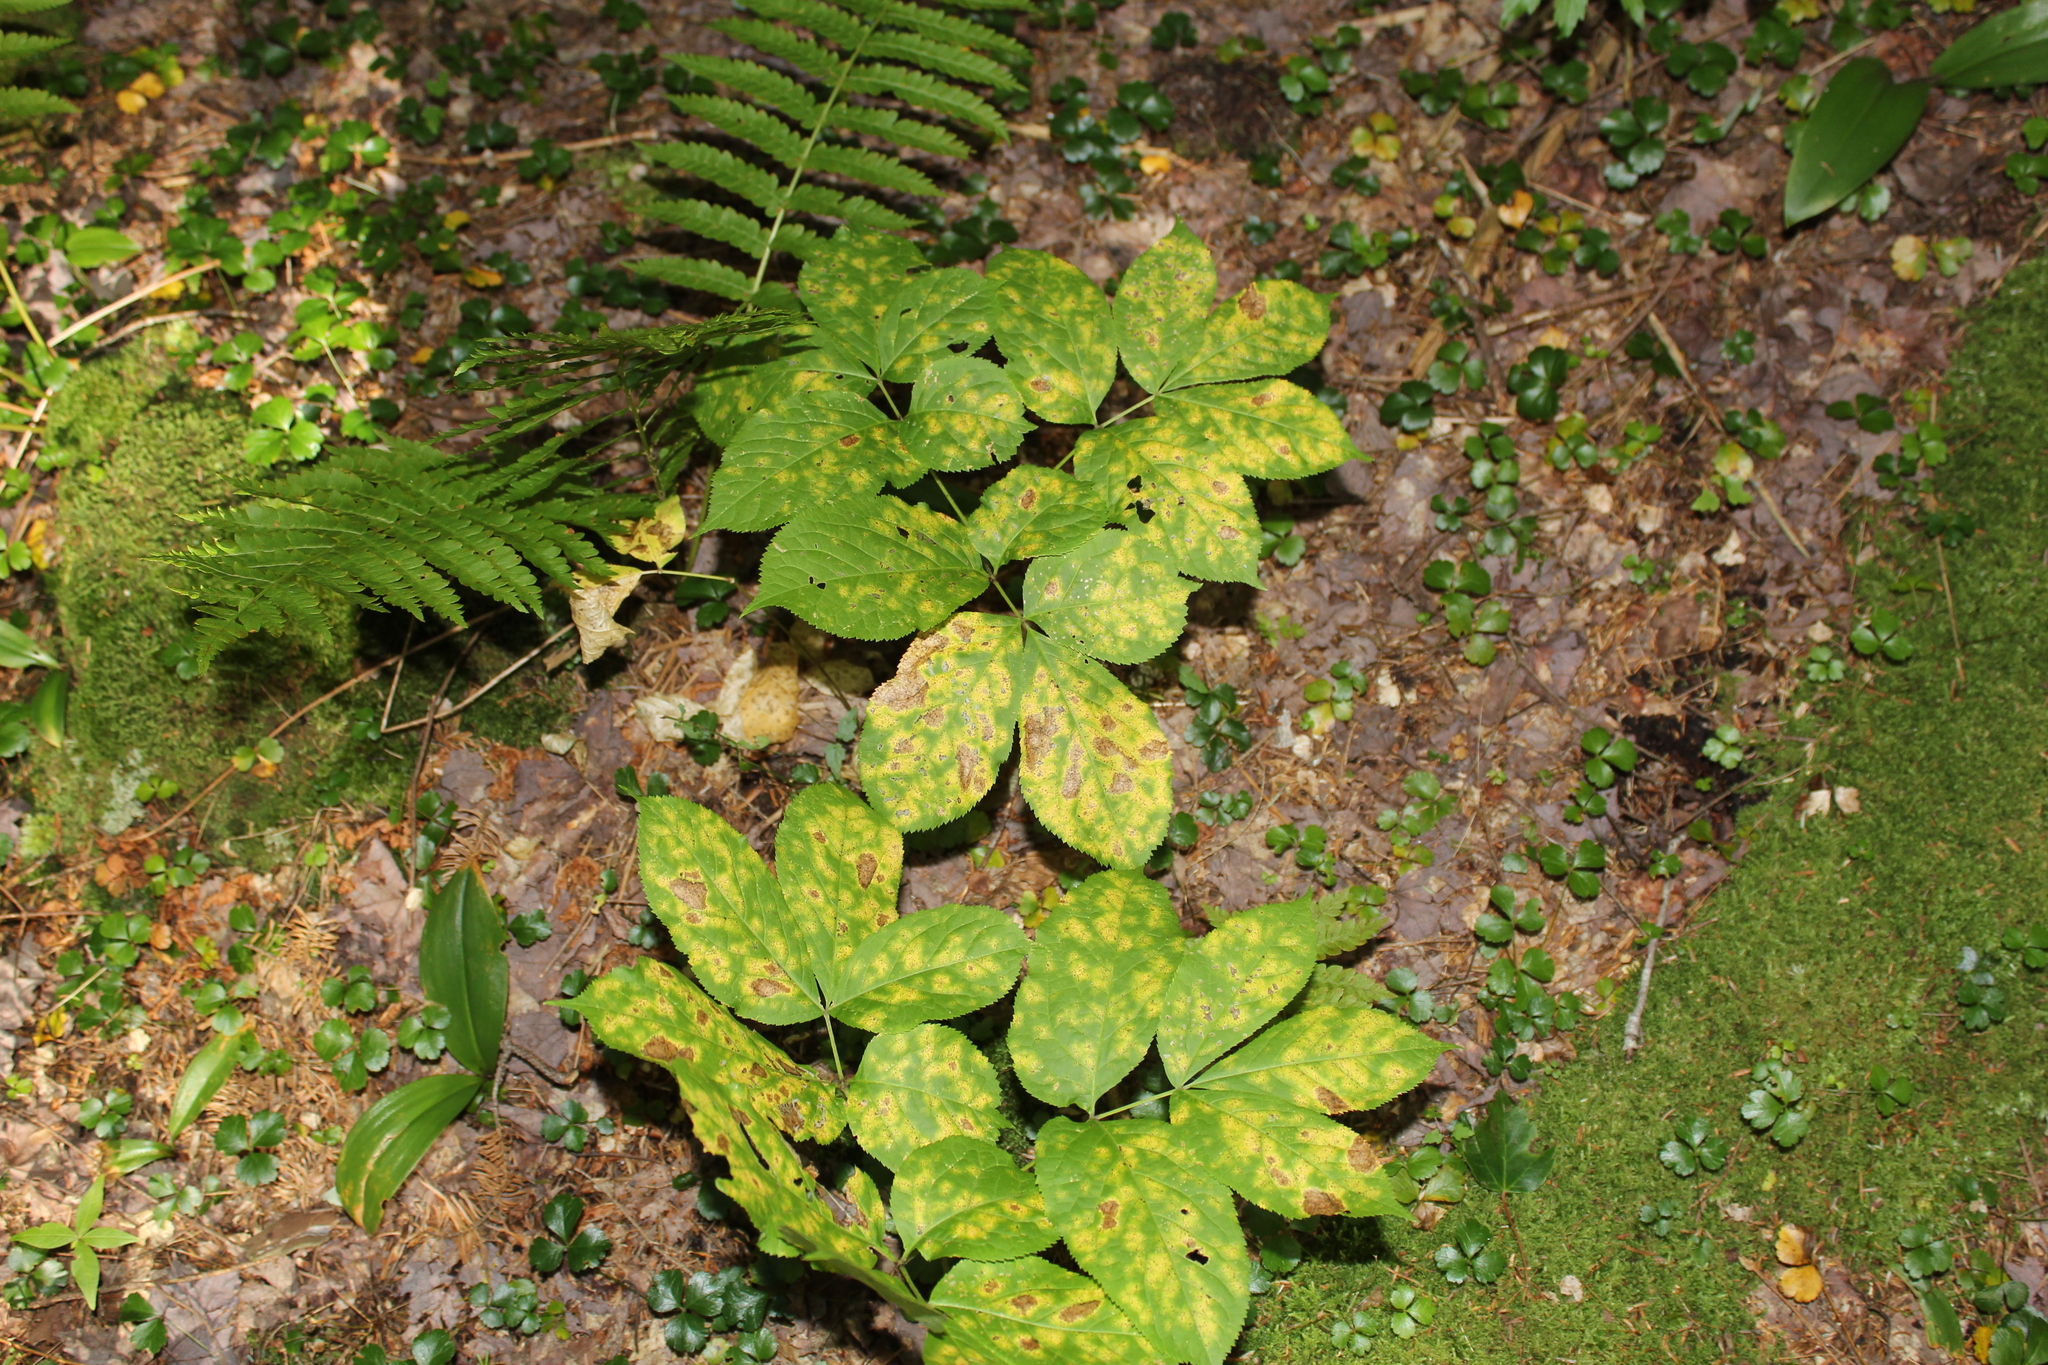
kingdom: Plantae
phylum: Tracheophyta
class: Magnoliopsida
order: Apiales
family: Araliaceae
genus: Aralia
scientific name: Aralia nudicaulis
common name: Wild sarsaparilla
